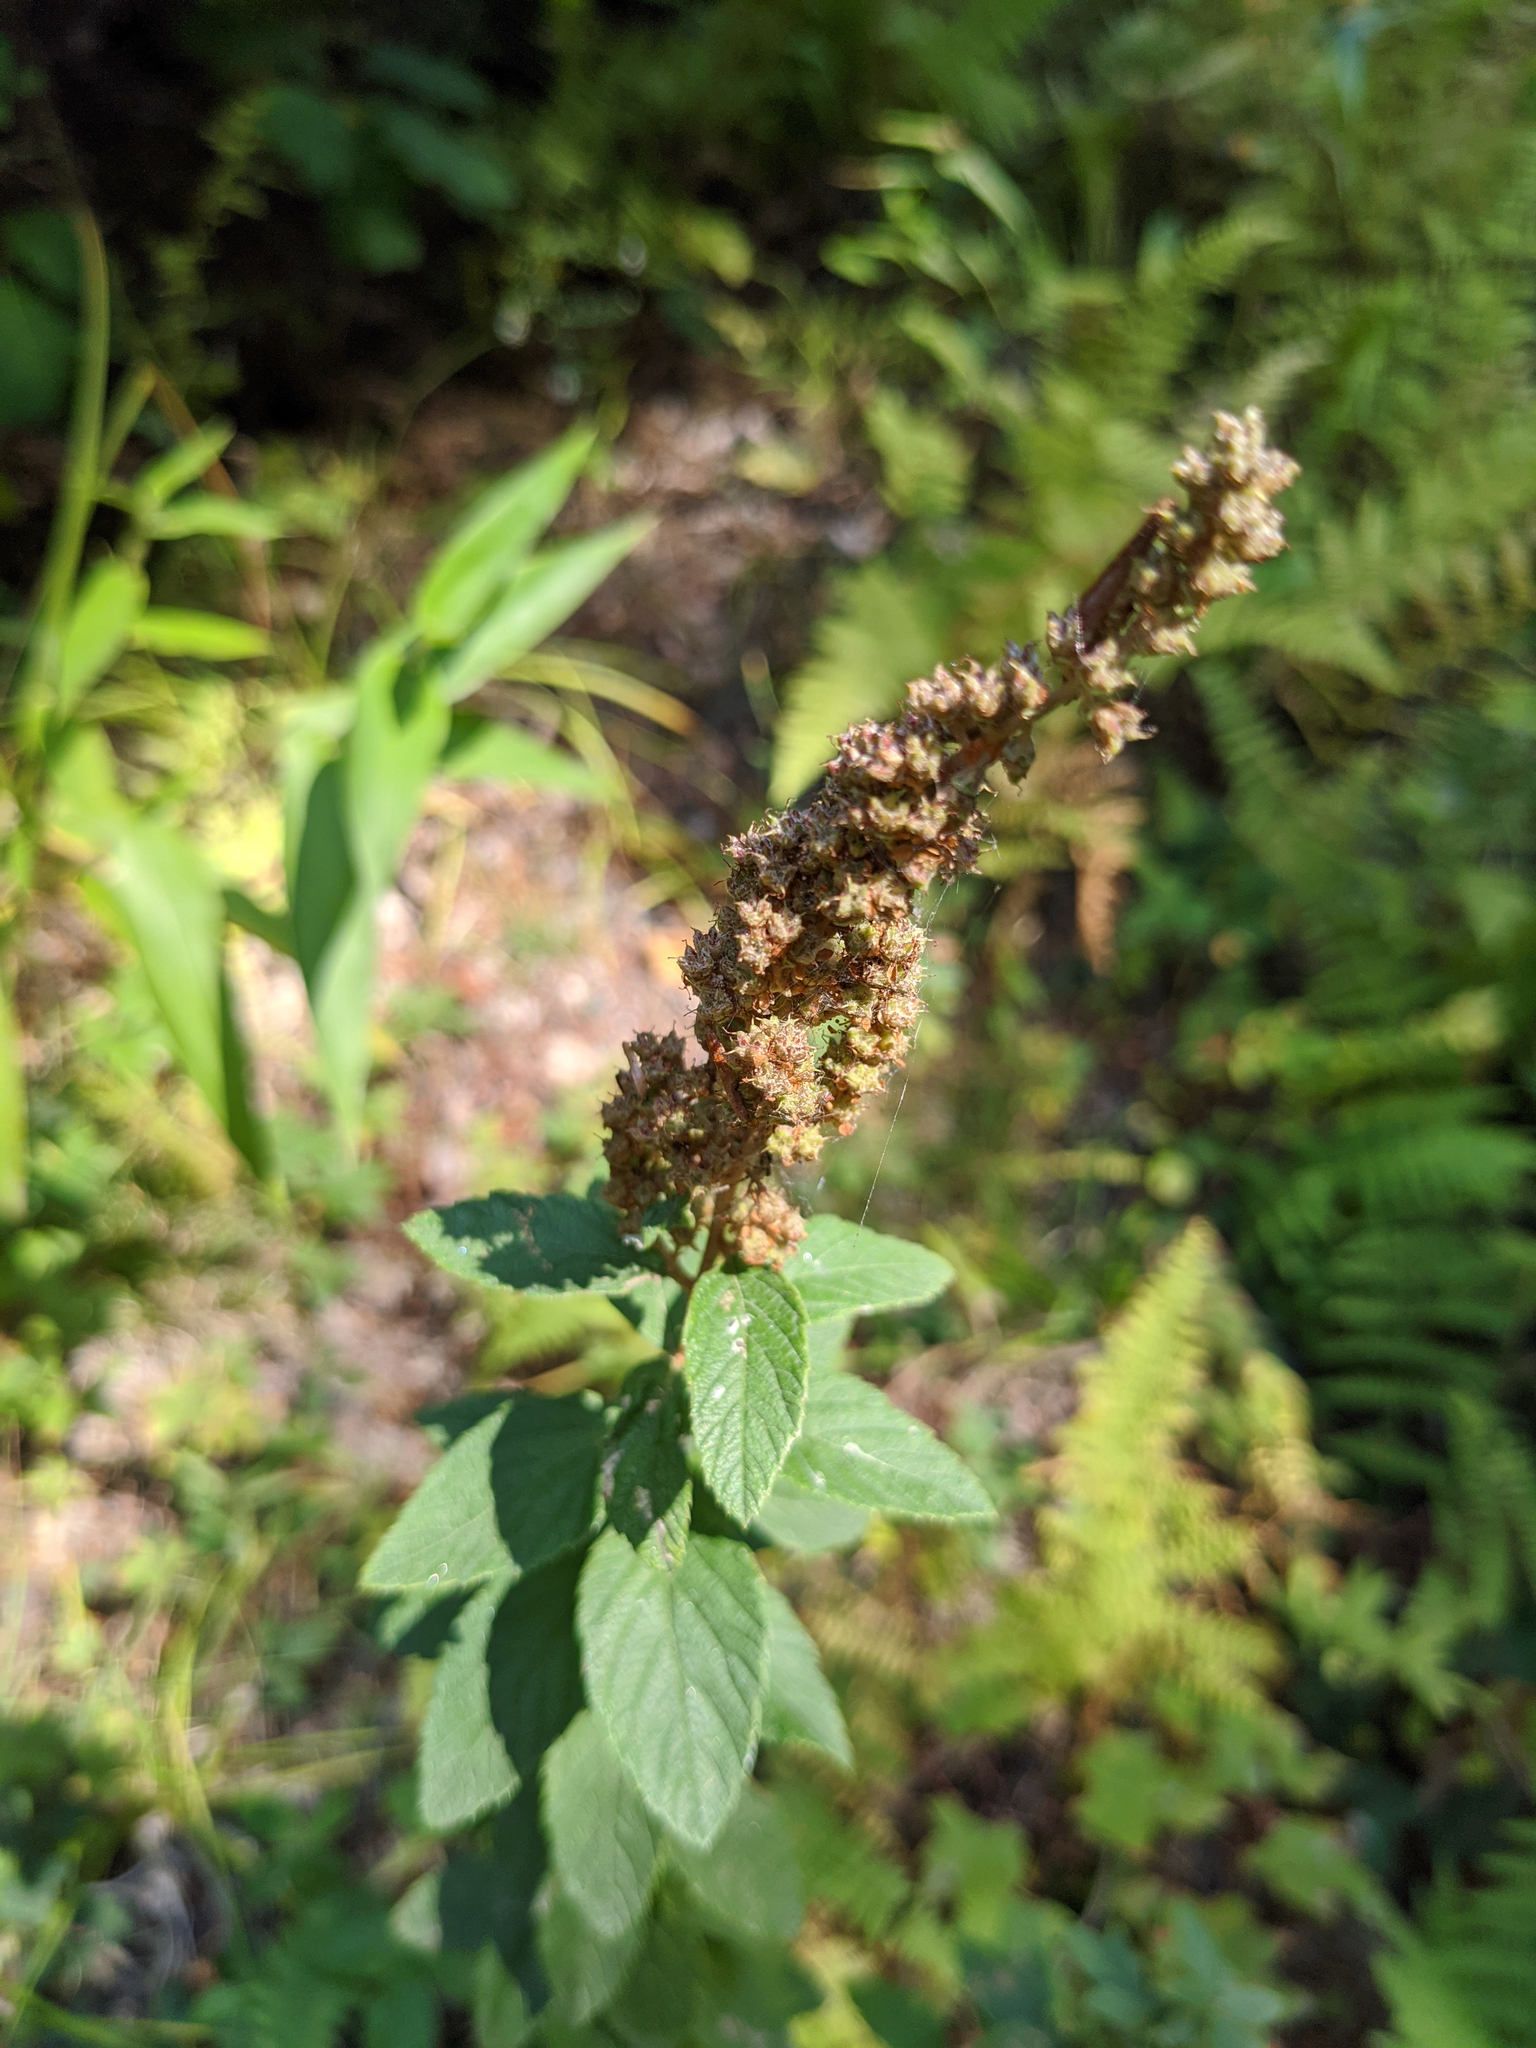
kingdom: Plantae
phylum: Tracheophyta
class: Magnoliopsida
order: Rosales
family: Rosaceae
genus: Spiraea
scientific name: Spiraea tomentosa
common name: Hardhack
